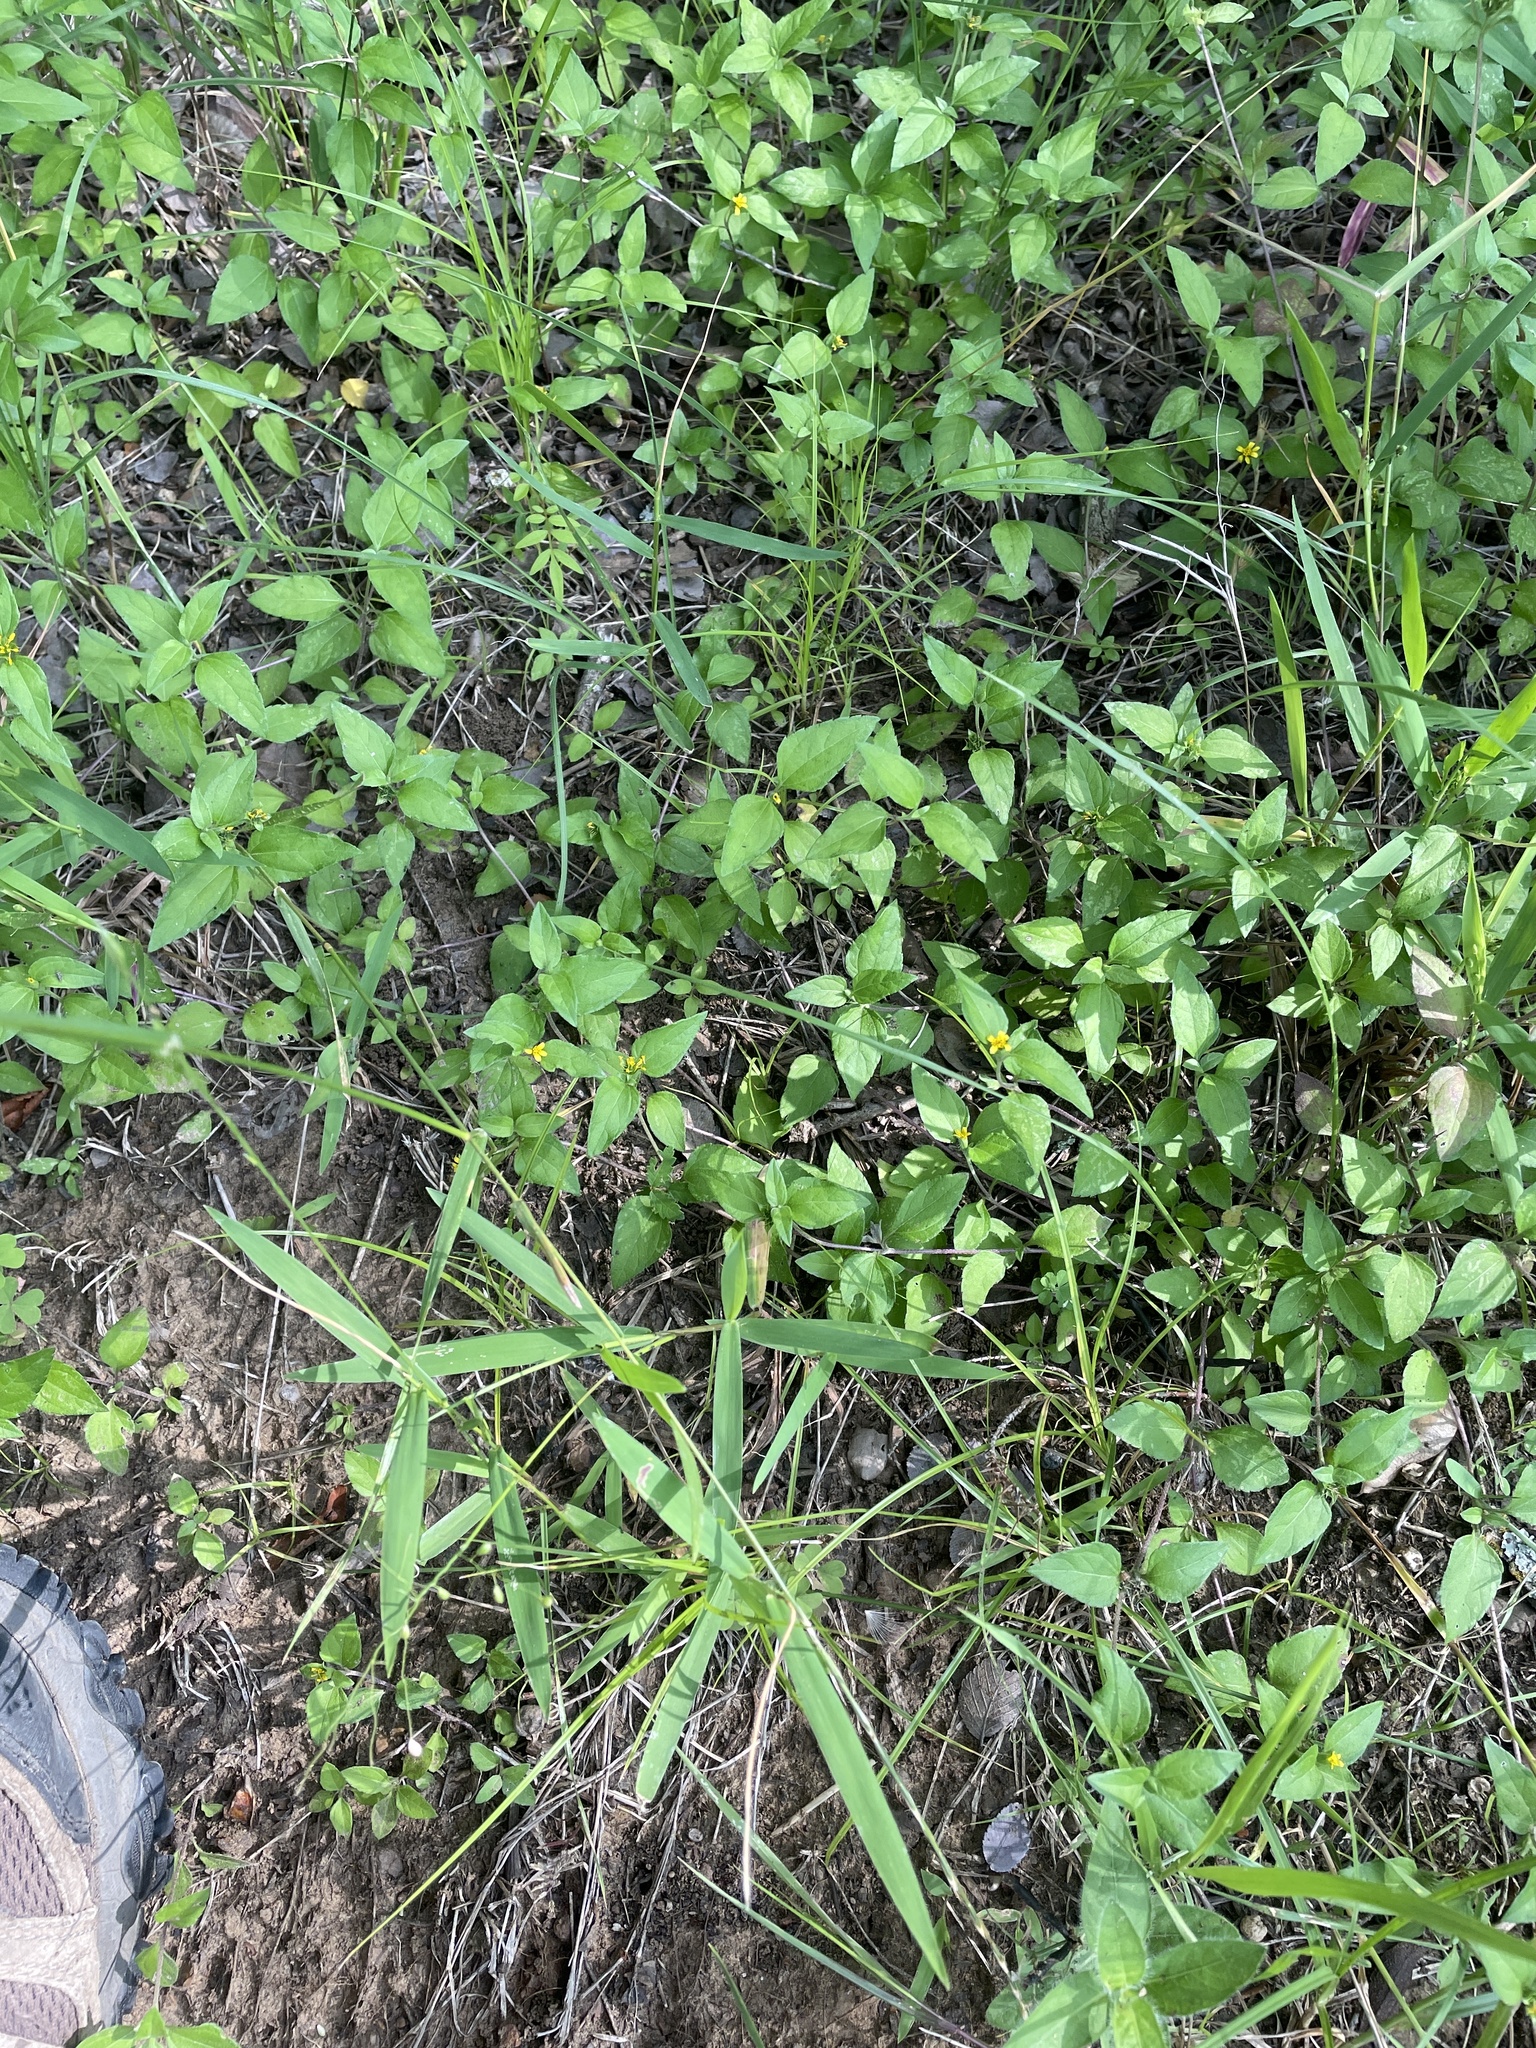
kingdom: Plantae
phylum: Tracheophyta
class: Magnoliopsida
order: Asterales
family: Asteraceae
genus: Calyptocarpus
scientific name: Calyptocarpus vialis
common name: Straggler daisy
